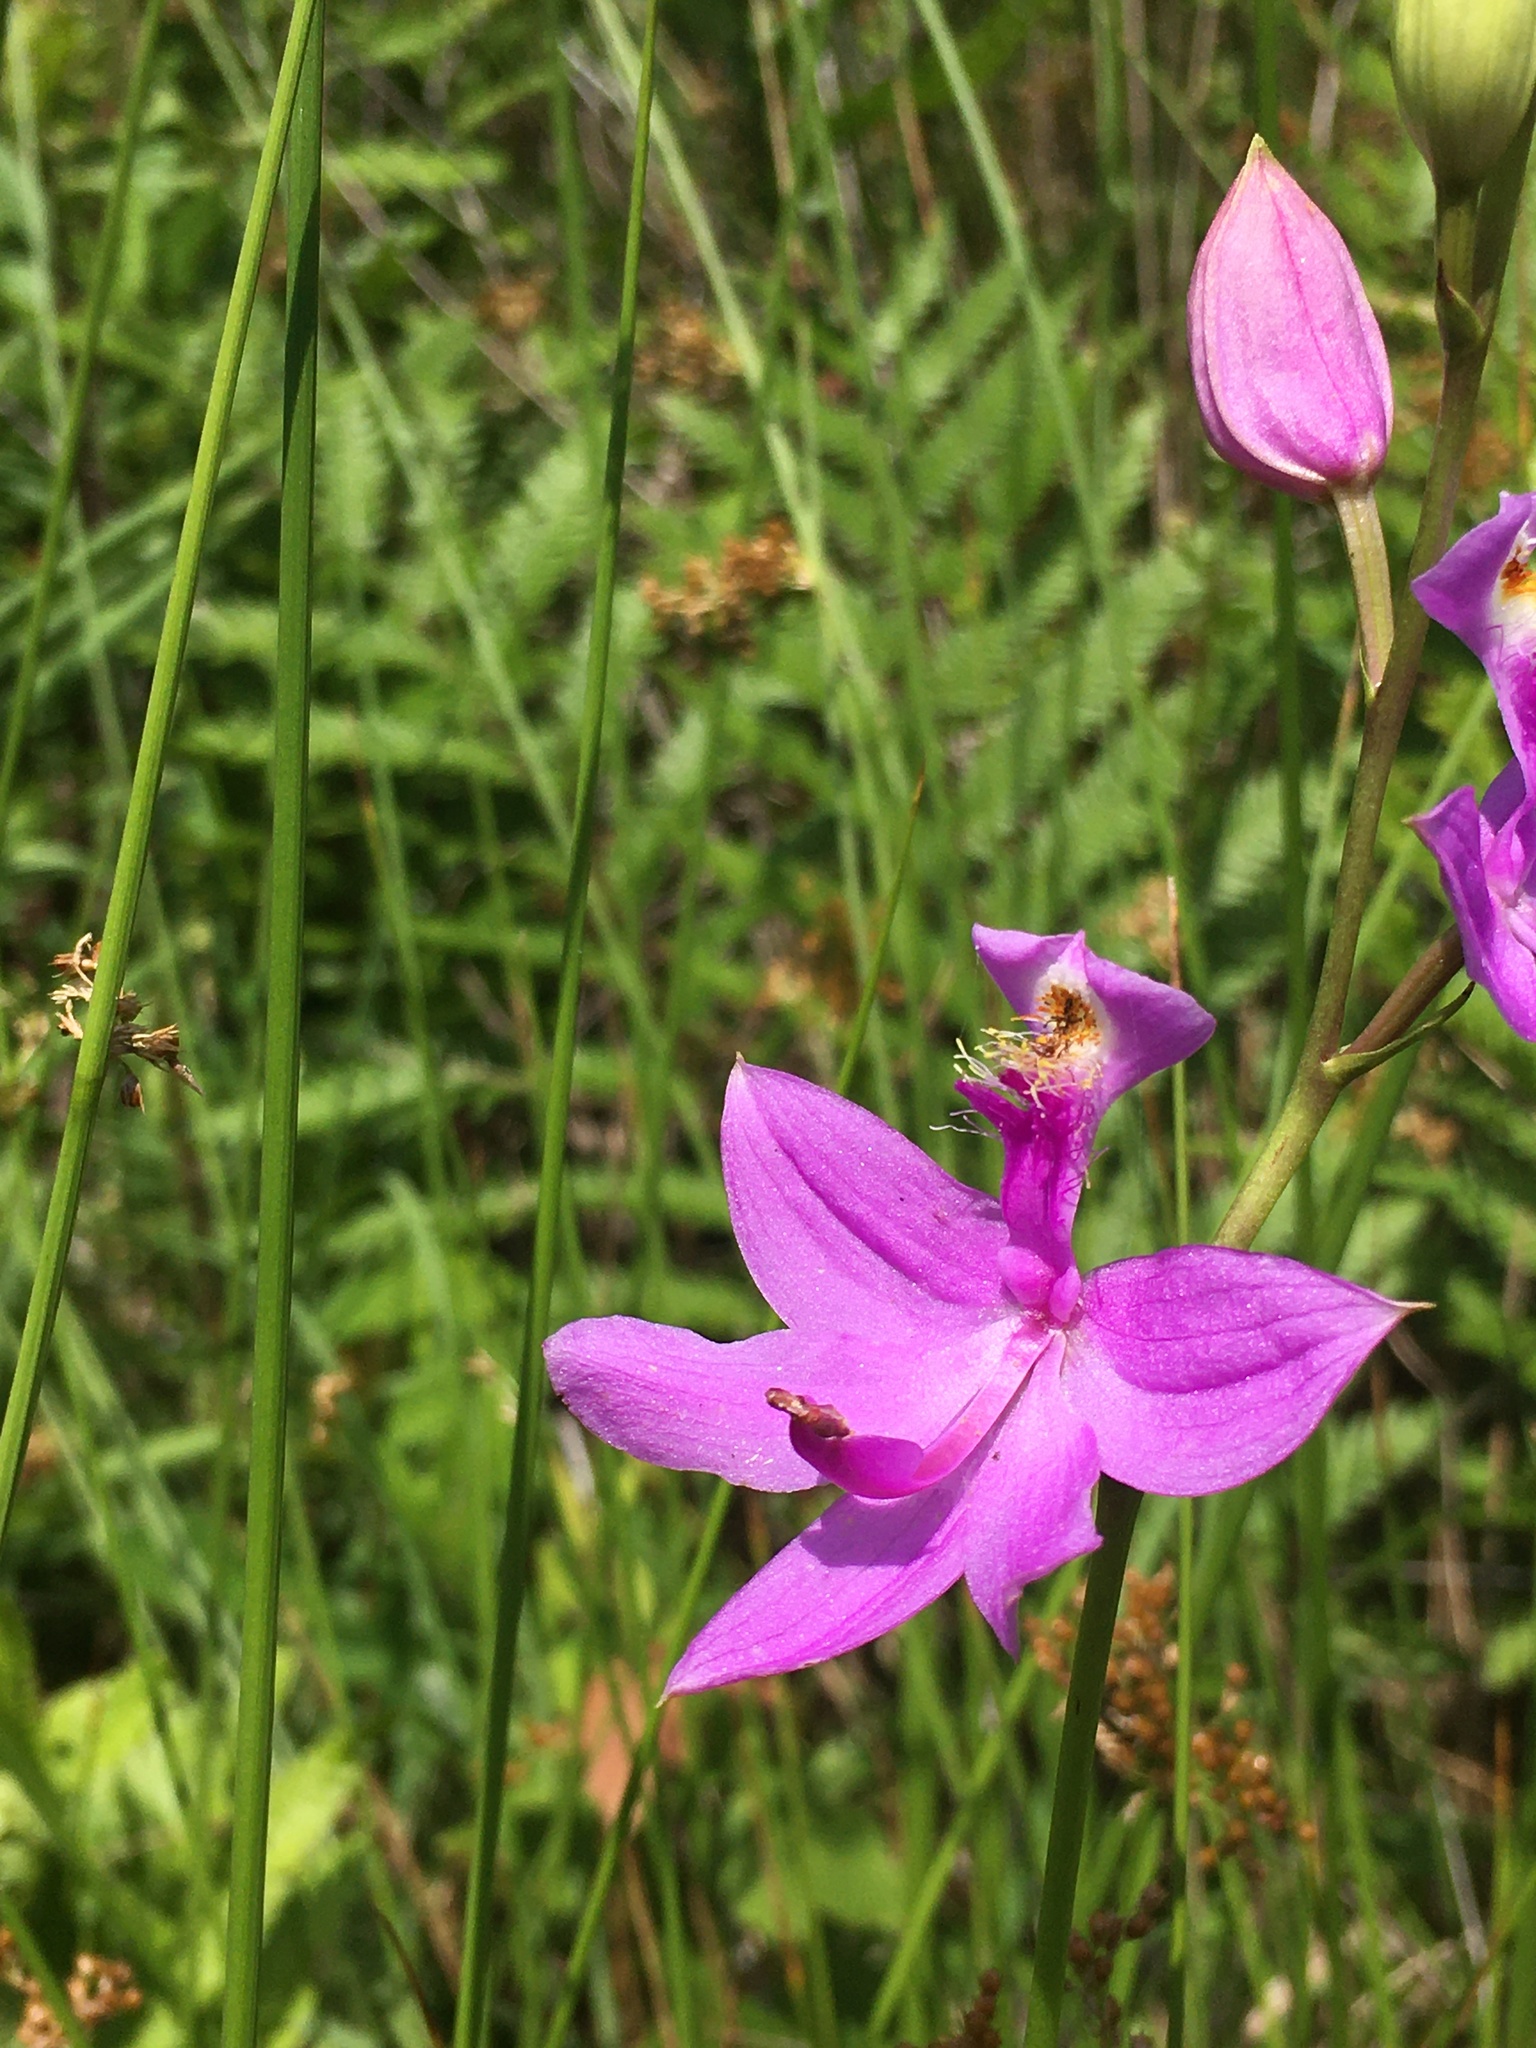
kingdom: Plantae
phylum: Tracheophyta
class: Liliopsida
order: Asparagales
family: Orchidaceae
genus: Calopogon
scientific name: Calopogon tuberosus
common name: Grass-pink
